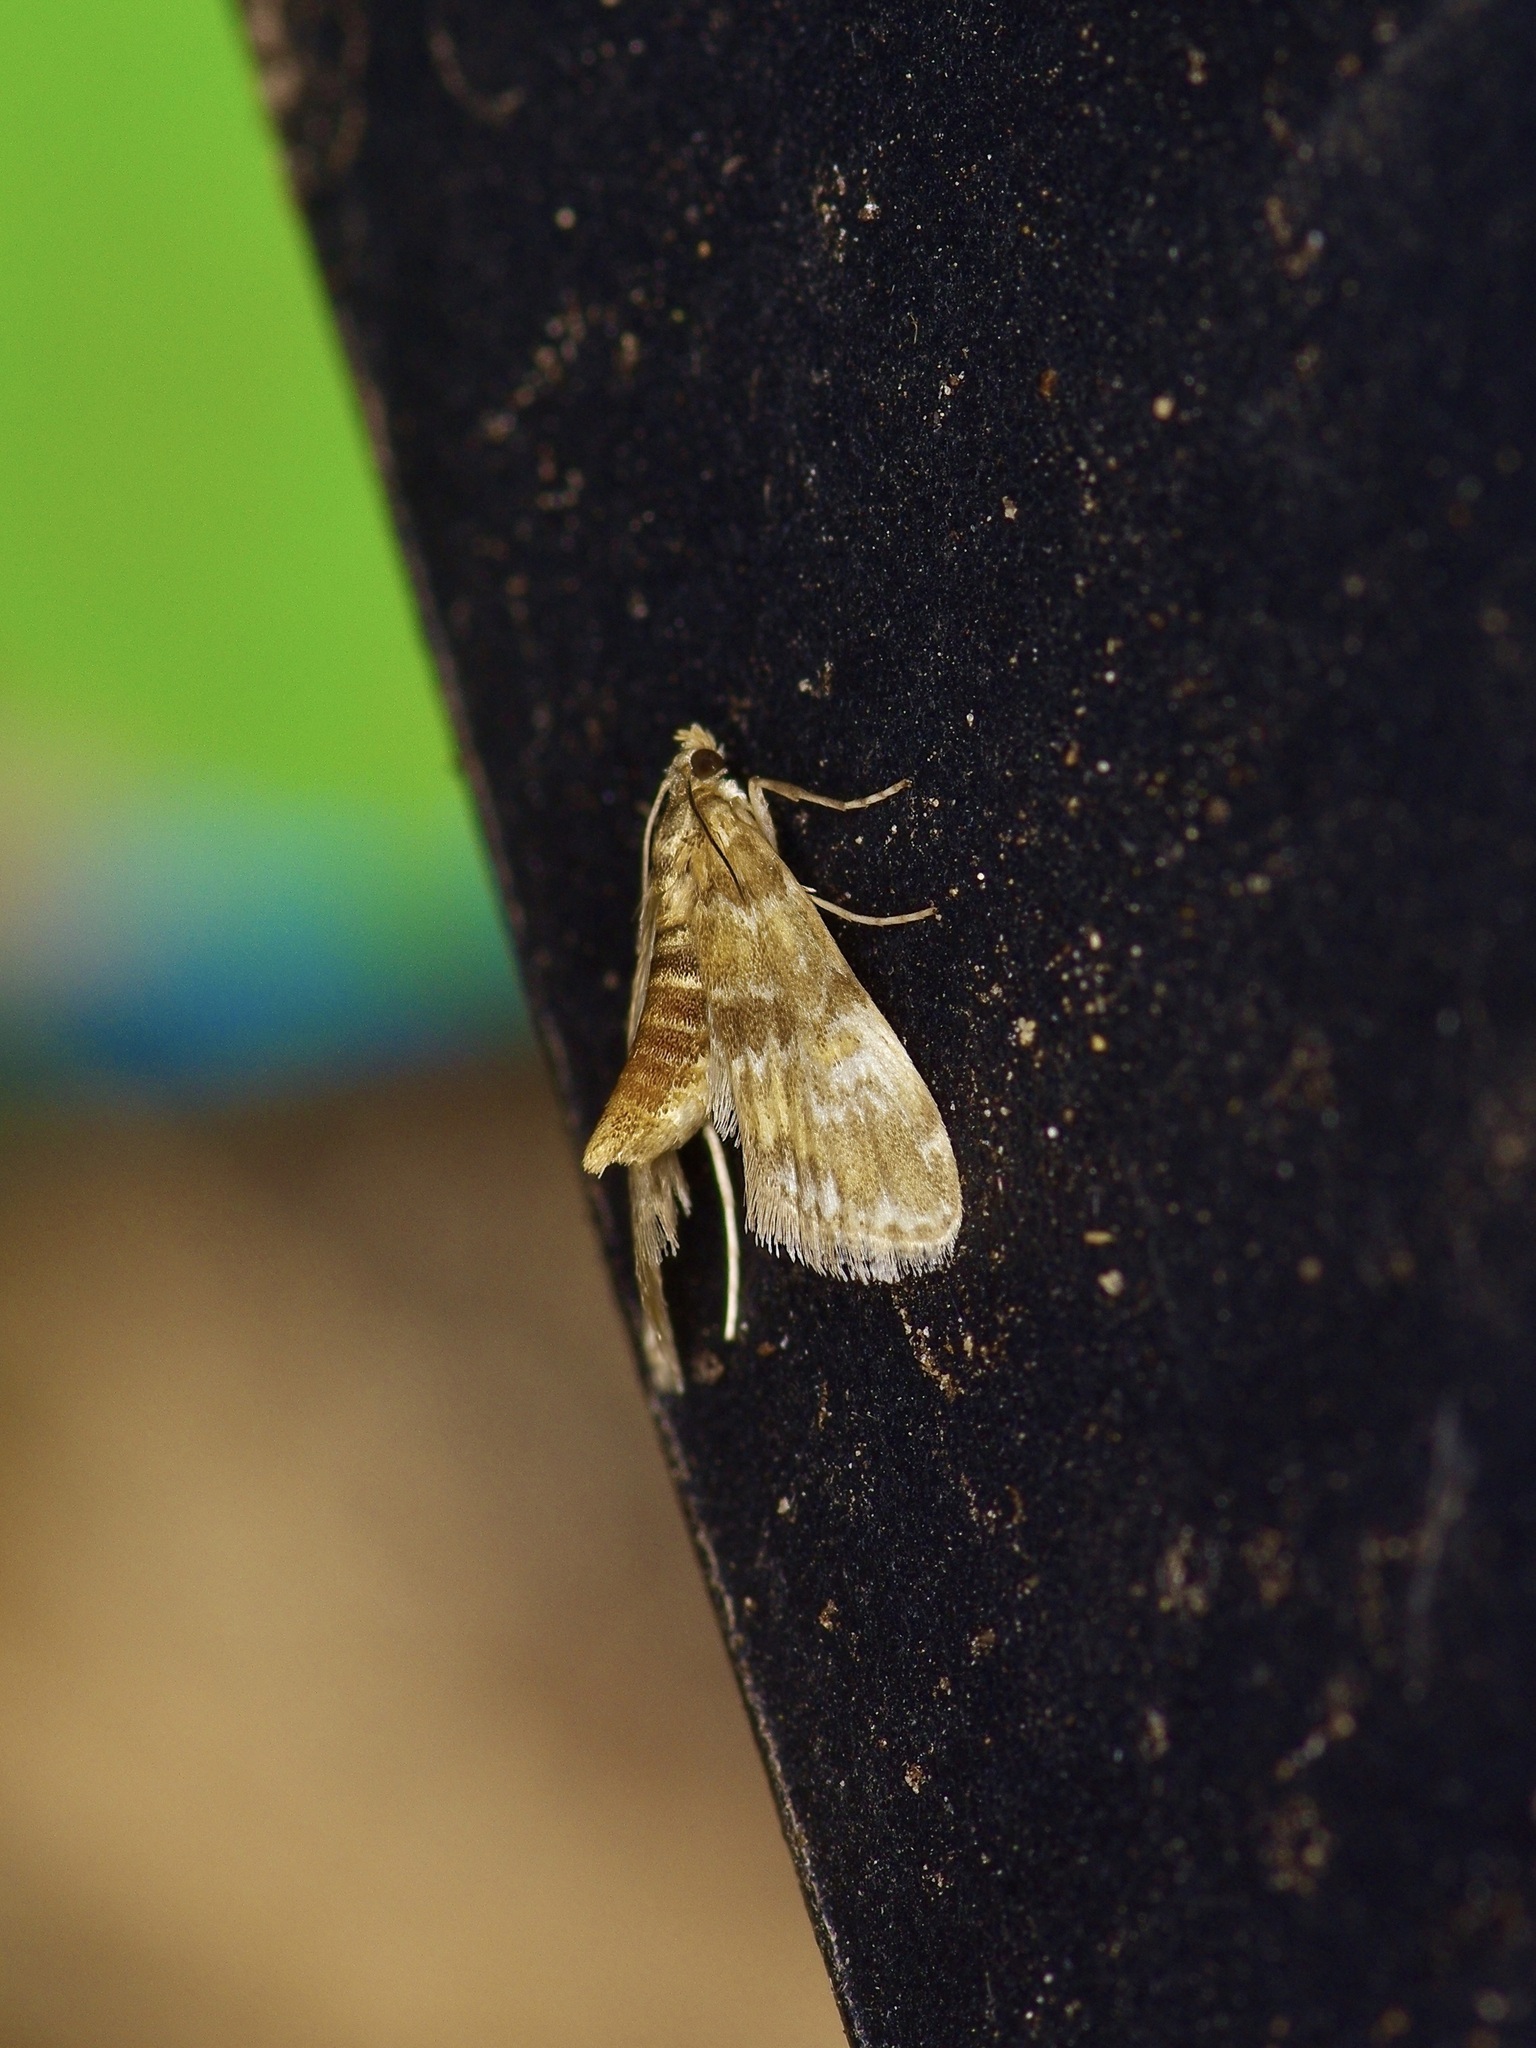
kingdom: Animalia
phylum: Arthropoda
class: Insecta
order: Lepidoptera
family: Crambidae
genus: Elophila
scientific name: Elophila obliteralis
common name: Waterlily leafcutter moth
